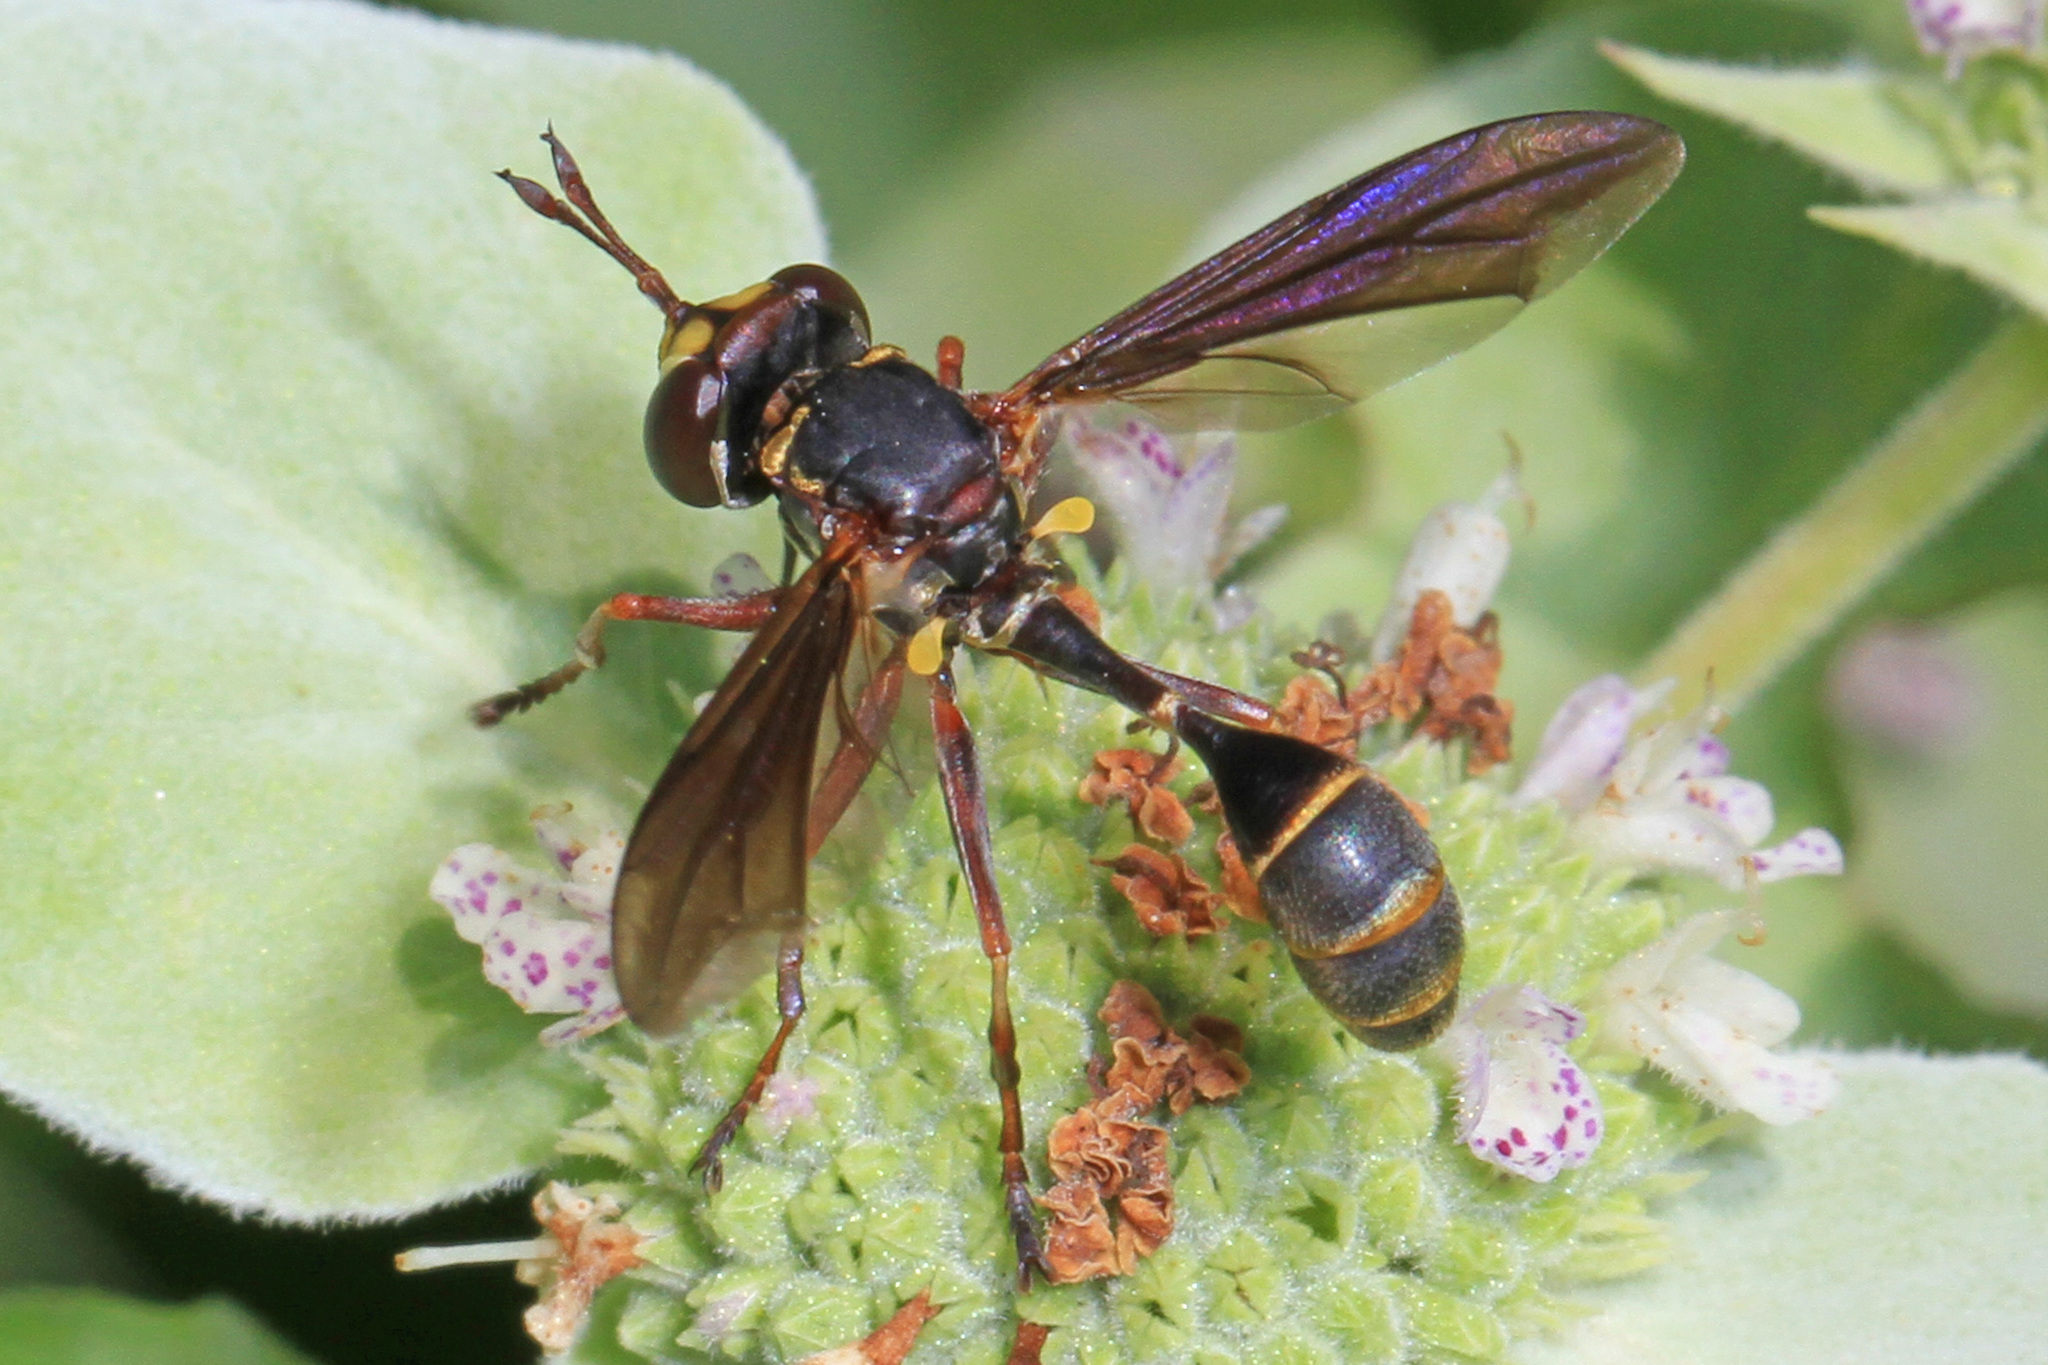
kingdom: Animalia
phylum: Arthropoda
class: Insecta
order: Diptera
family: Conopidae
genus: Physocephala
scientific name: Physocephala sagittaria
